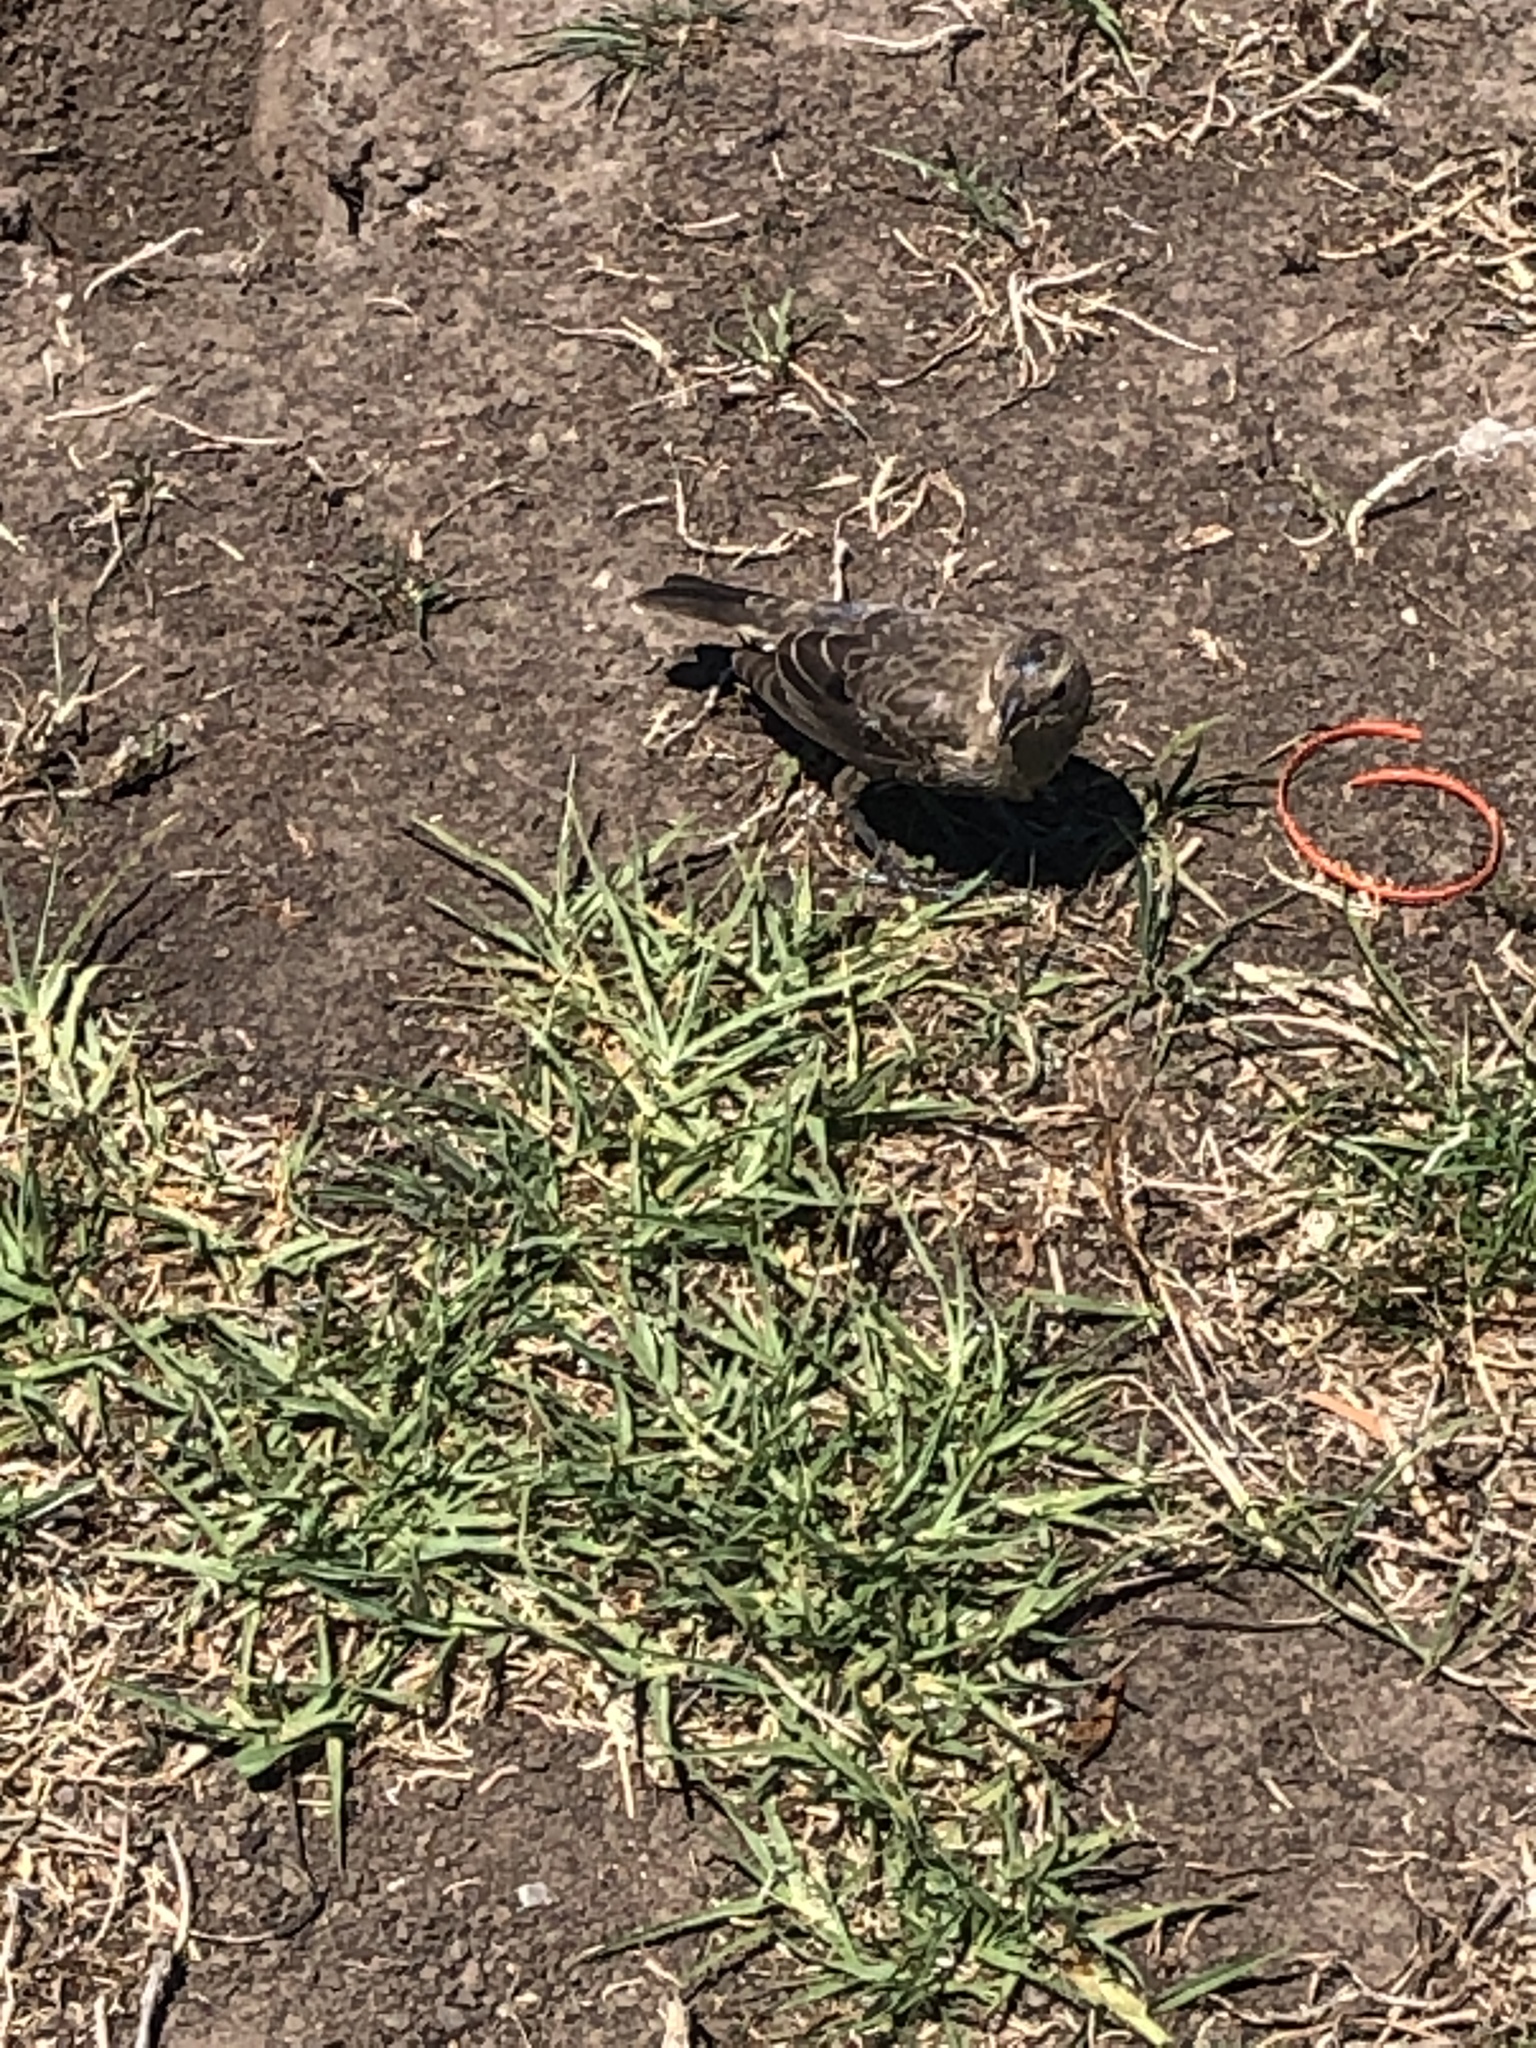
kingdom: Animalia
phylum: Chordata
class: Aves
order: Passeriformes
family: Icteridae
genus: Molothrus
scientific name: Molothrus ater
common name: Brown-headed cowbird
